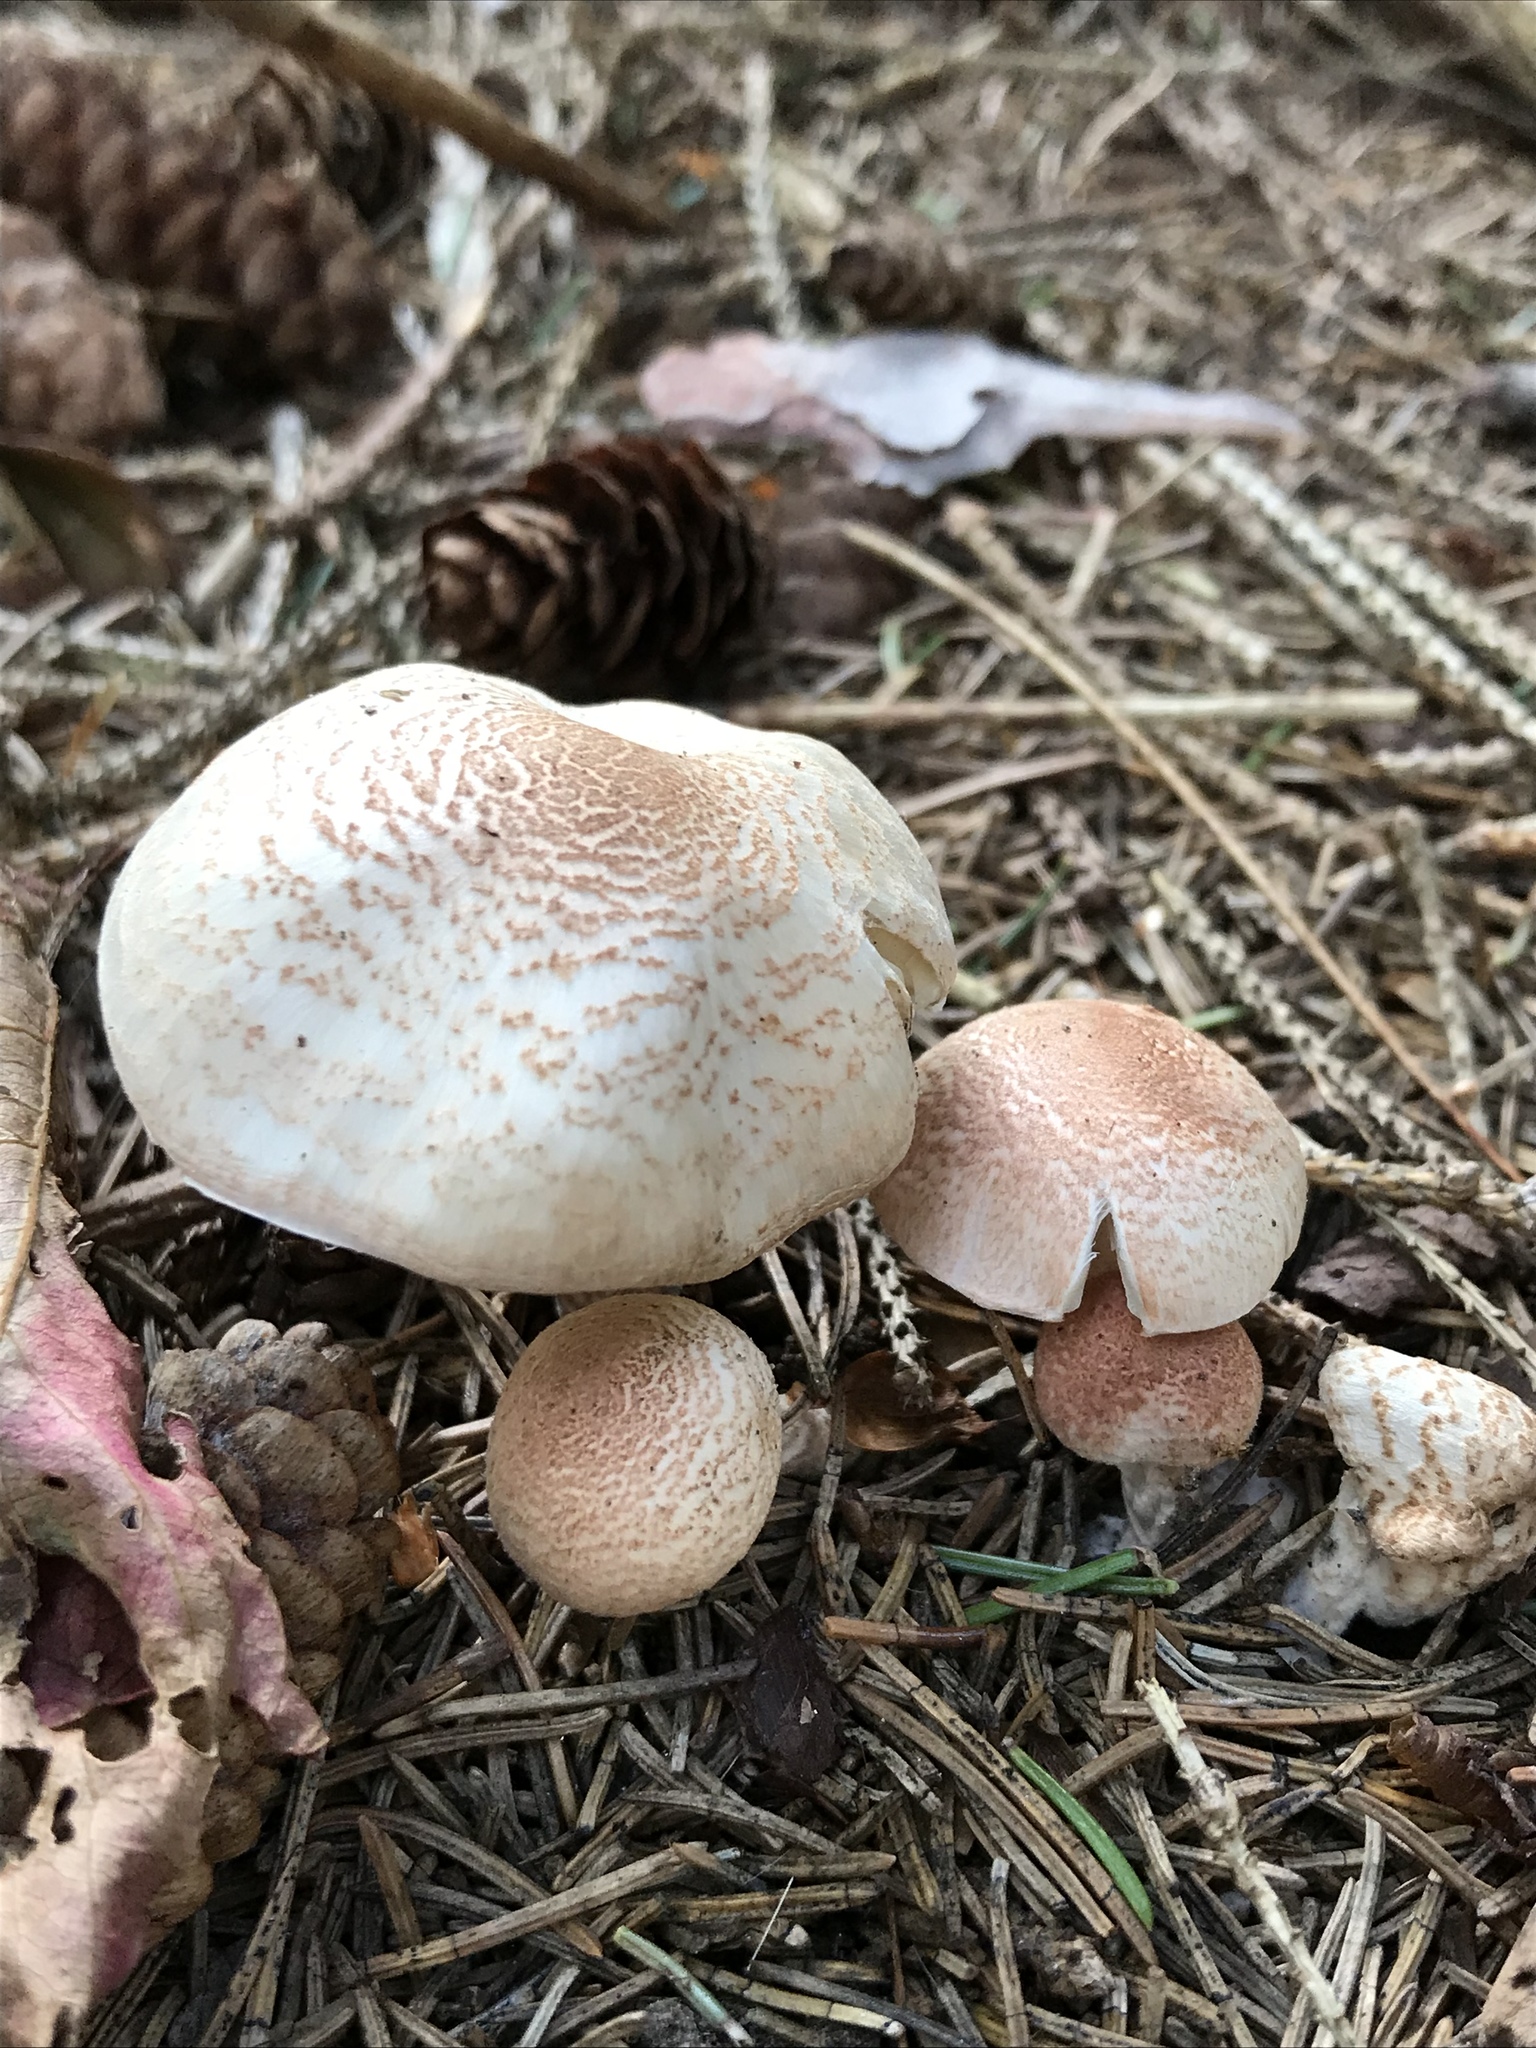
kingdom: Fungi
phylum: Basidiomycota
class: Agaricomycetes
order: Agaricales
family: Agaricaceae
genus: Lepiota
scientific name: Lepiota subincarnata
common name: Fatal dapperling
